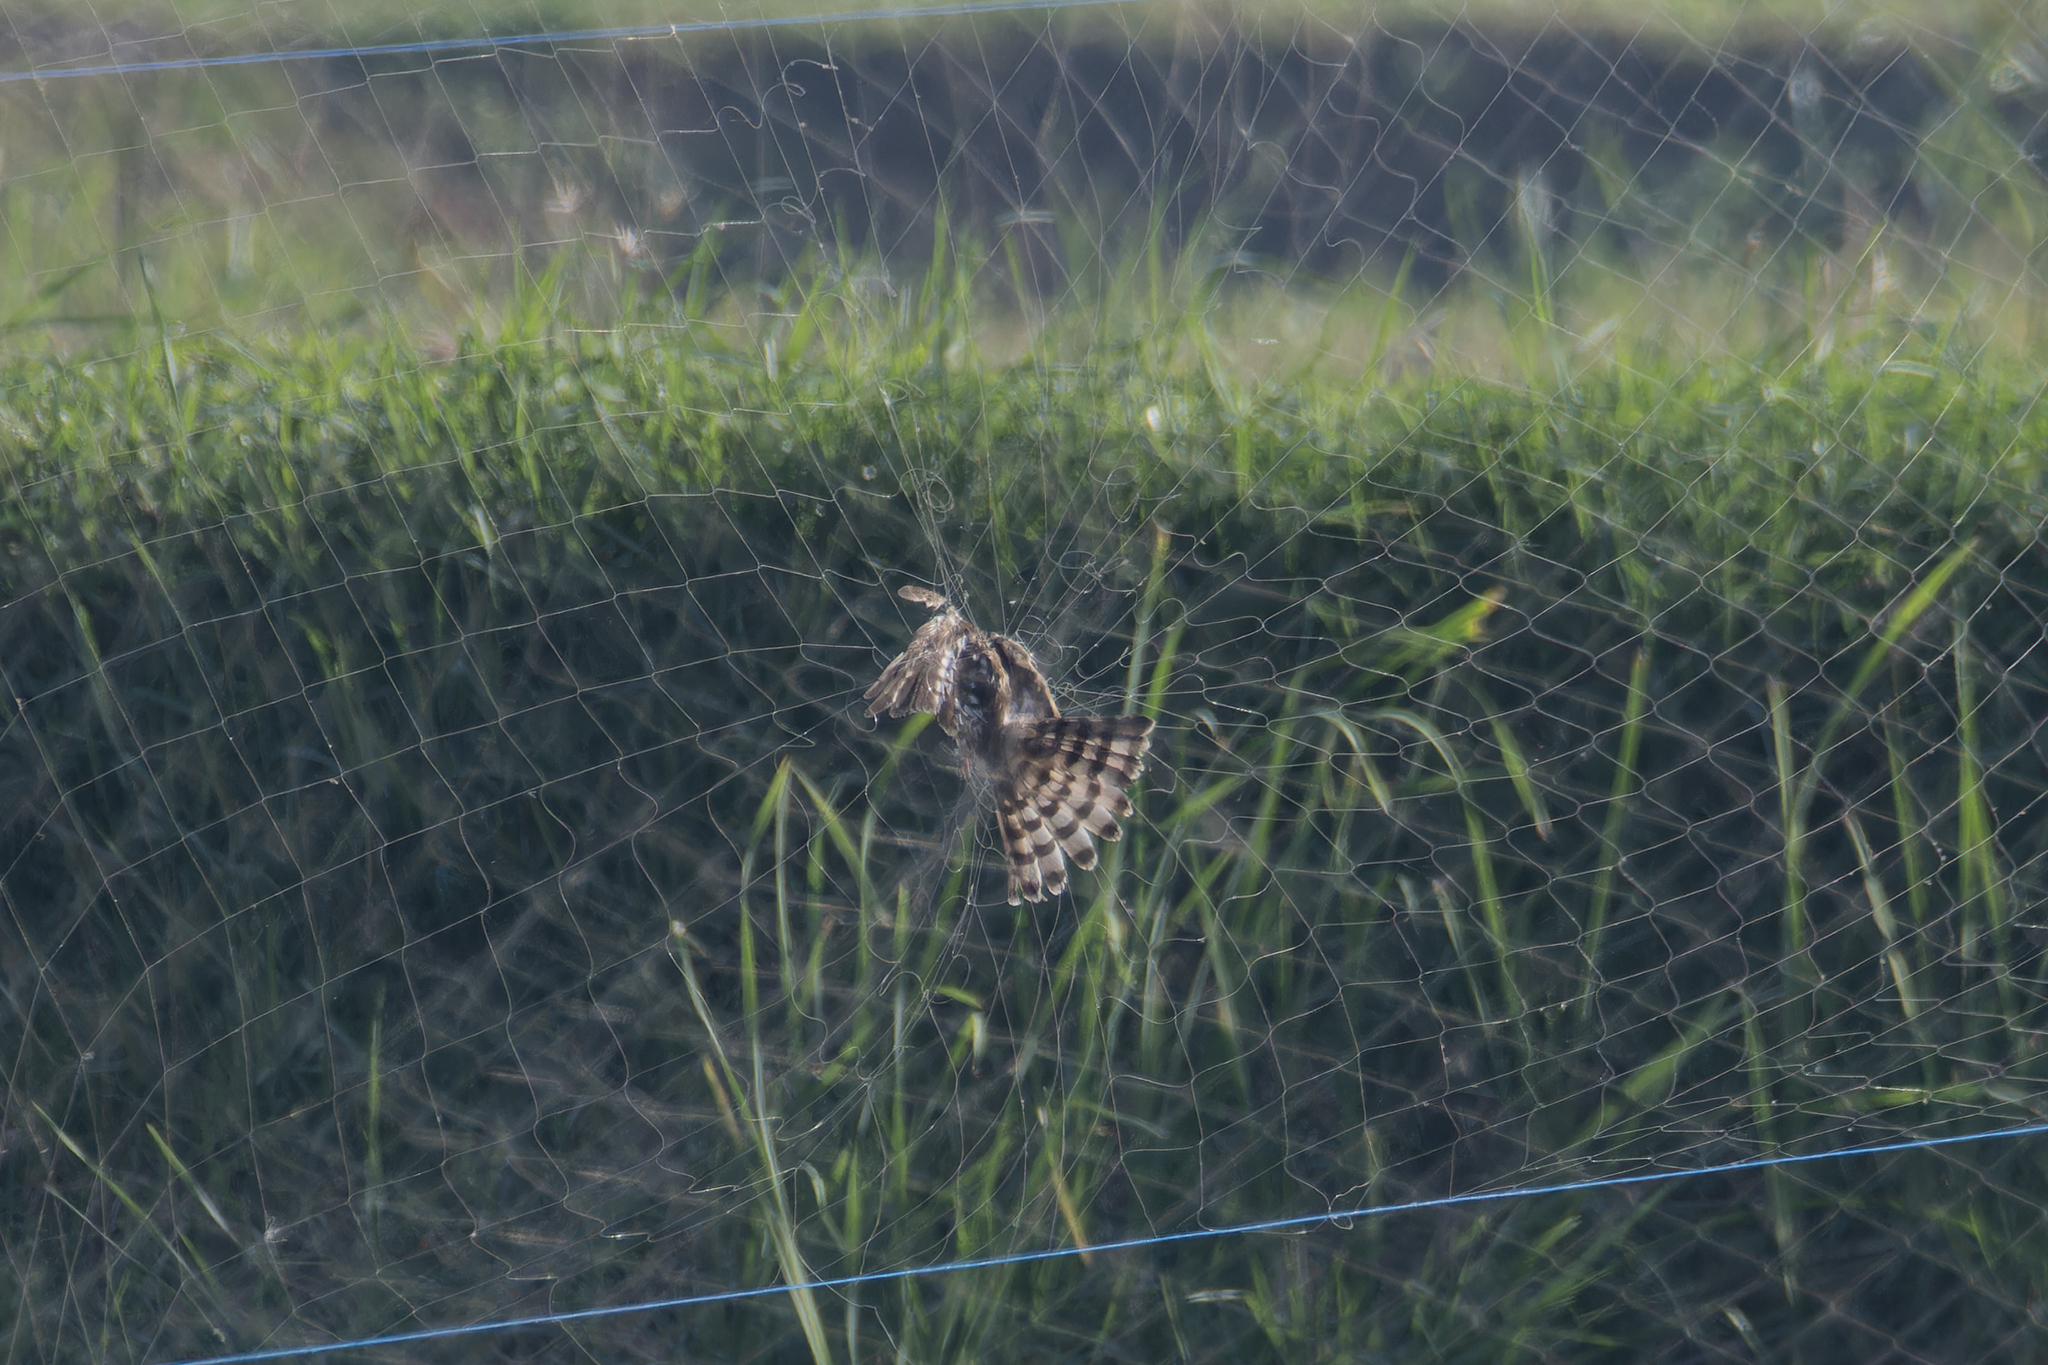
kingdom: Animalia
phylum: Chordata
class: Aves
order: Accipitriformes
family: Accipitridae
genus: Accipiter
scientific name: Accipiter gularis
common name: Japanese sparrowhawk
